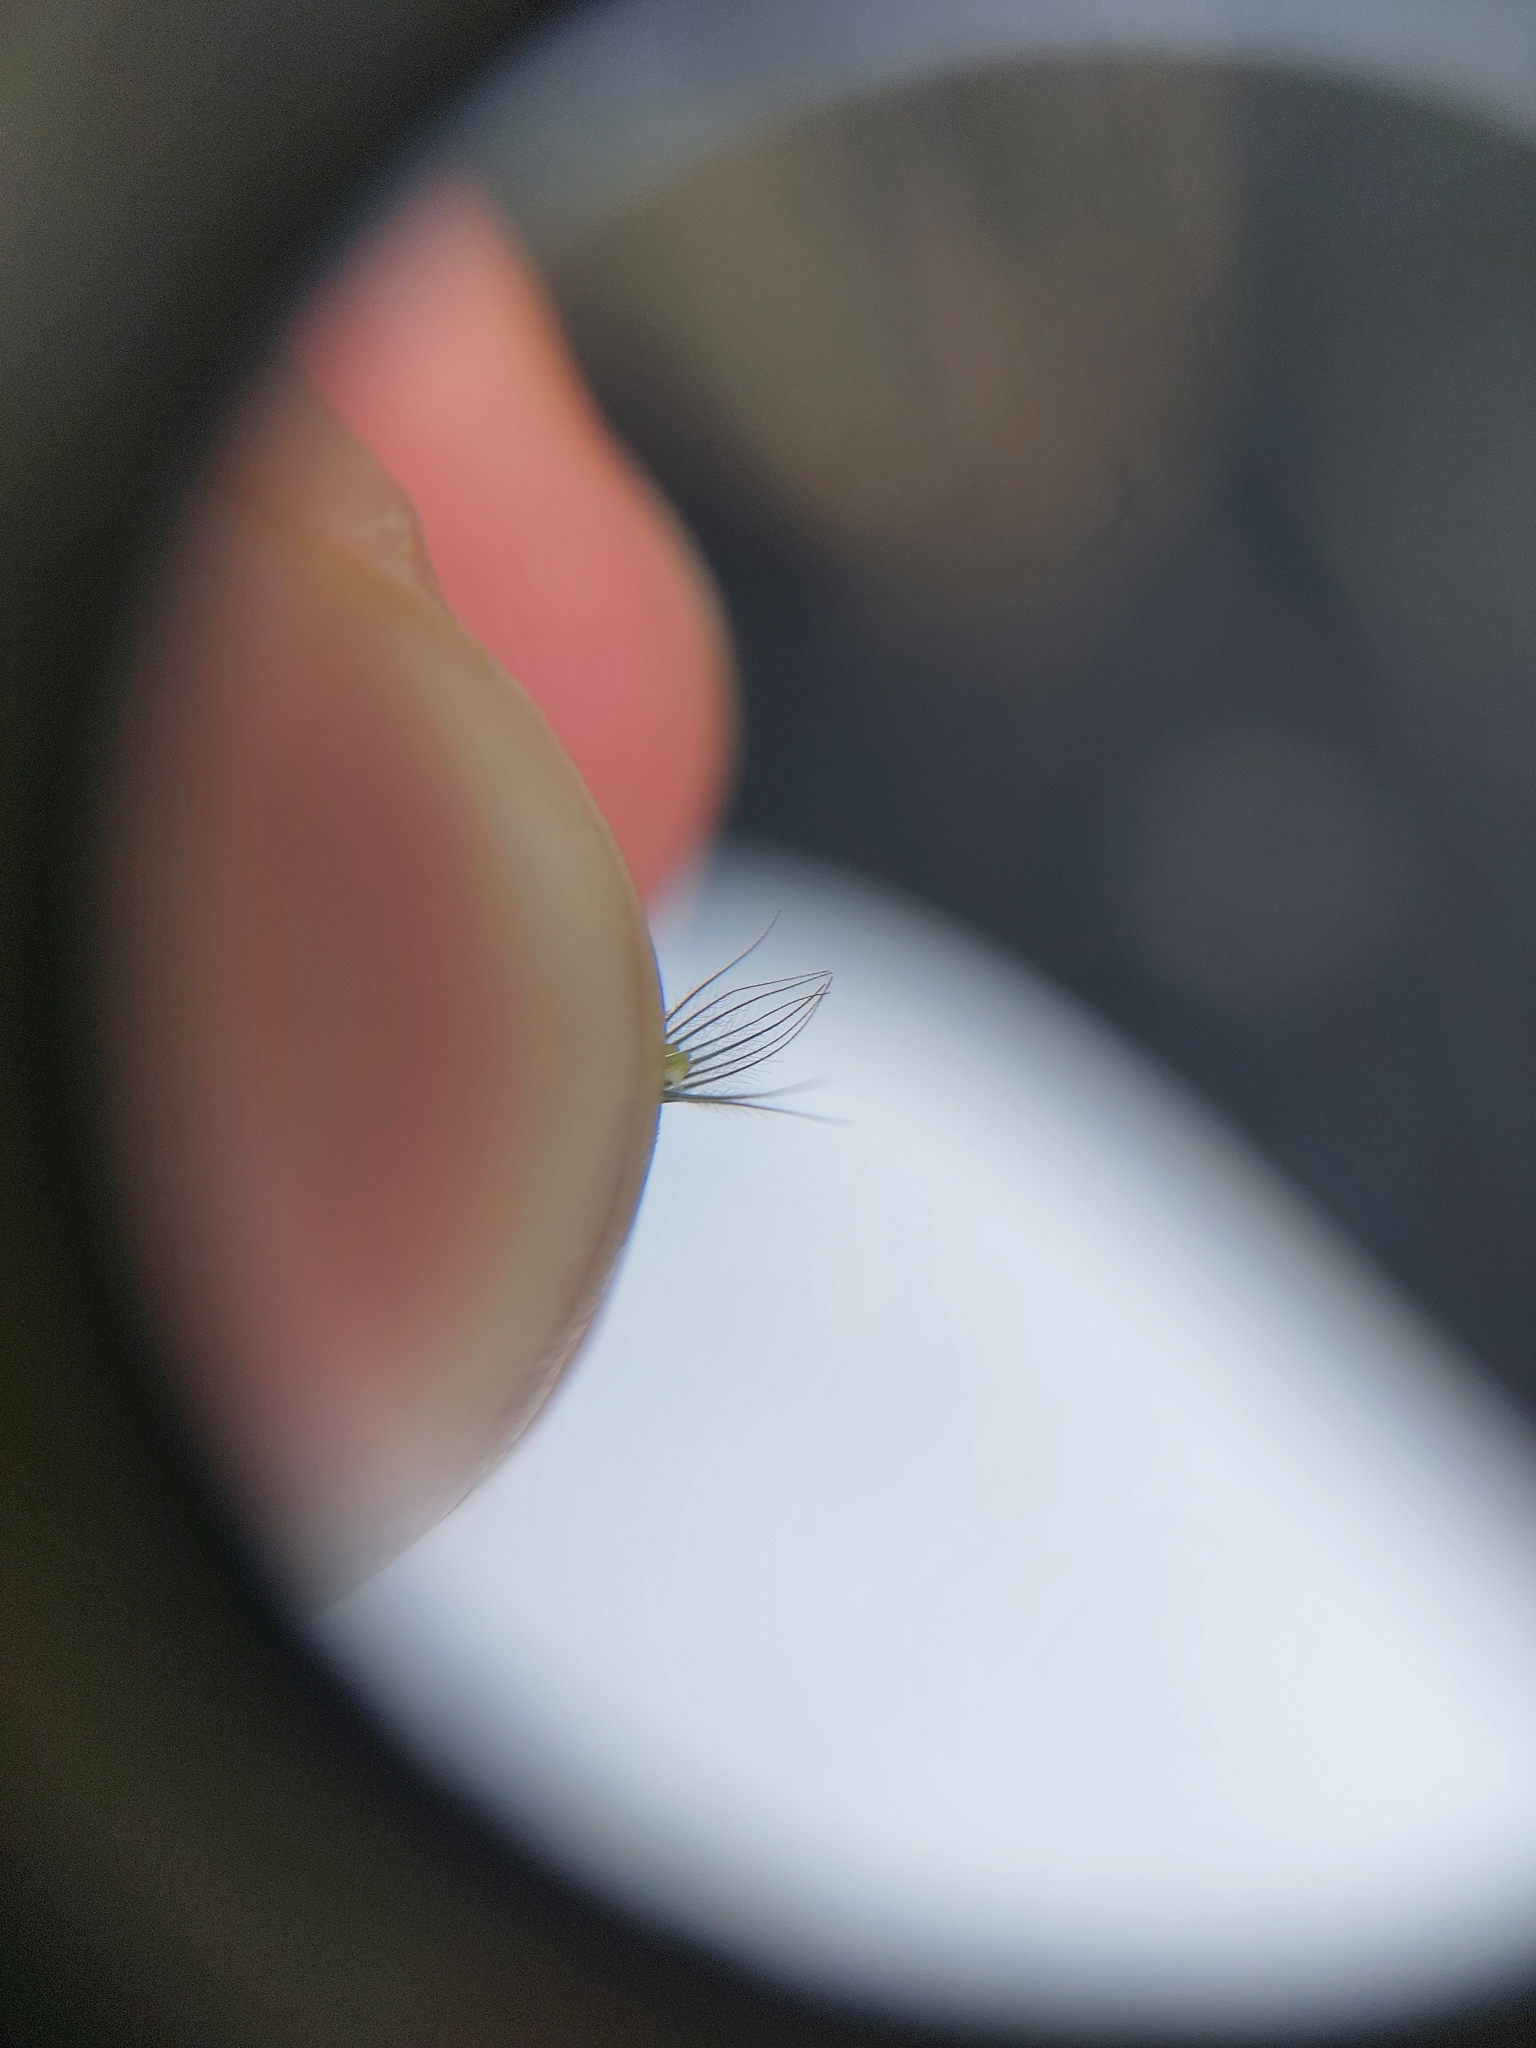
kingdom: Plantae
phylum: Tracheophyta
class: Liliopsida
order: Poales
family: Poaceae
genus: Enneapogon
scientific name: Enneapogon cenchroides
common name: Soft feather pappusgrass
